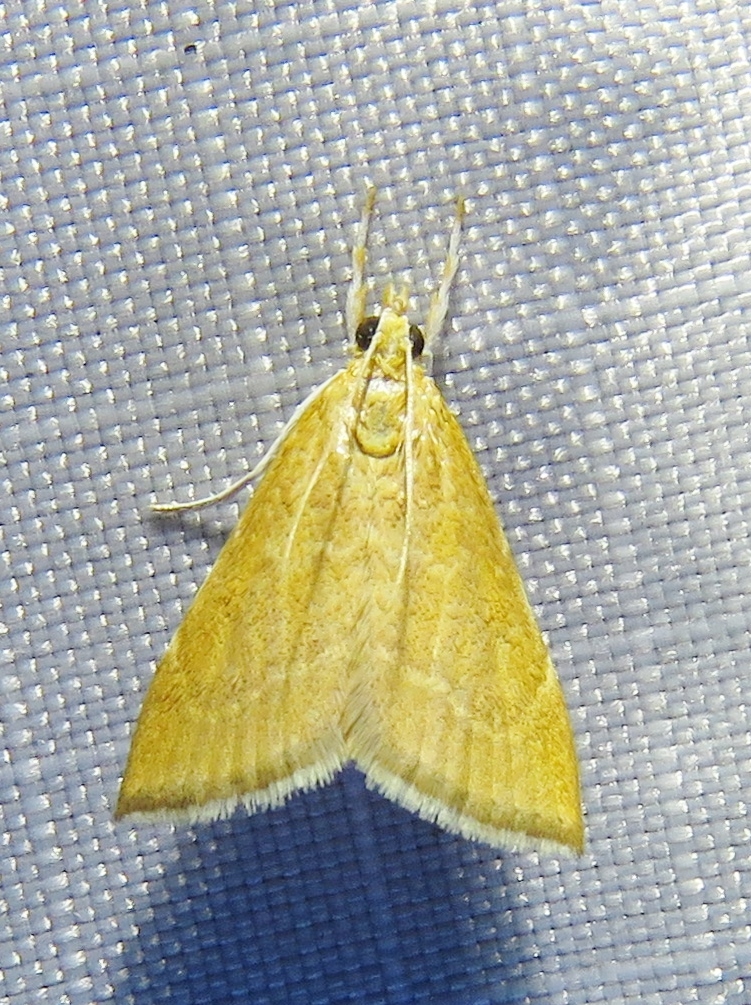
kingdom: Animalia
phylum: Arthropoda
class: Insecta
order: Lepidoptera
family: Crambidae
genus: Glaphyria
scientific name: Glaphyria invisalis
